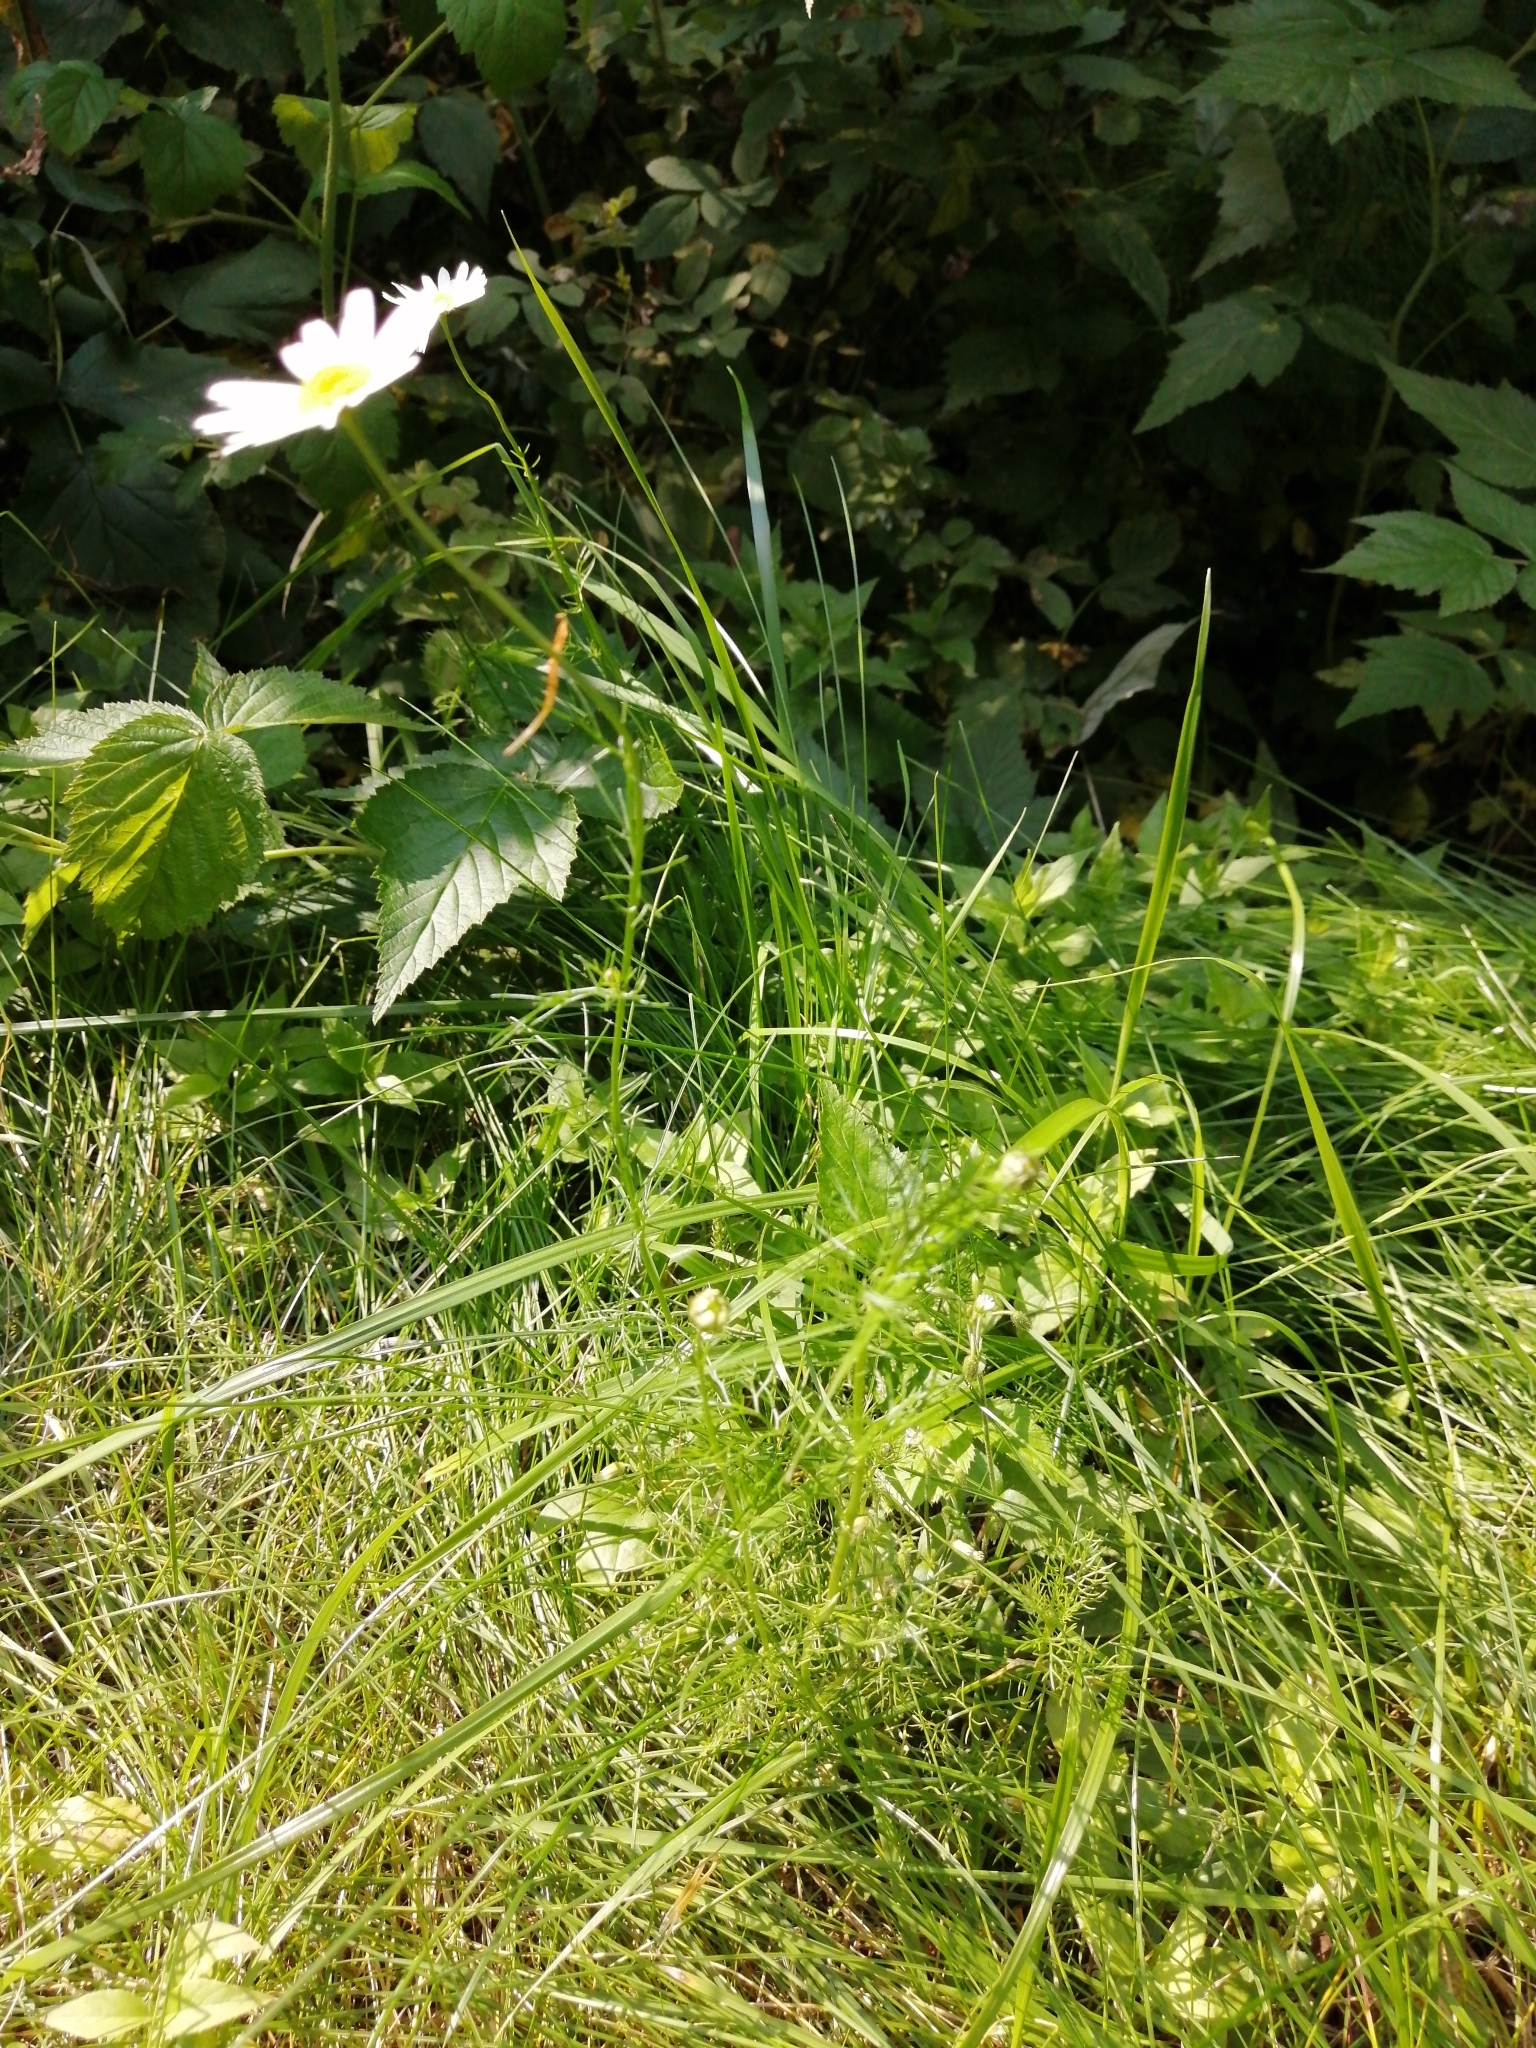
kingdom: Plantae
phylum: Tracheophyta
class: Magnoliopsida
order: Asterales
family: Asteraceae
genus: Tripleurospermum
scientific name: Tripleurospermum inodorum
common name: Scentless mayweed
